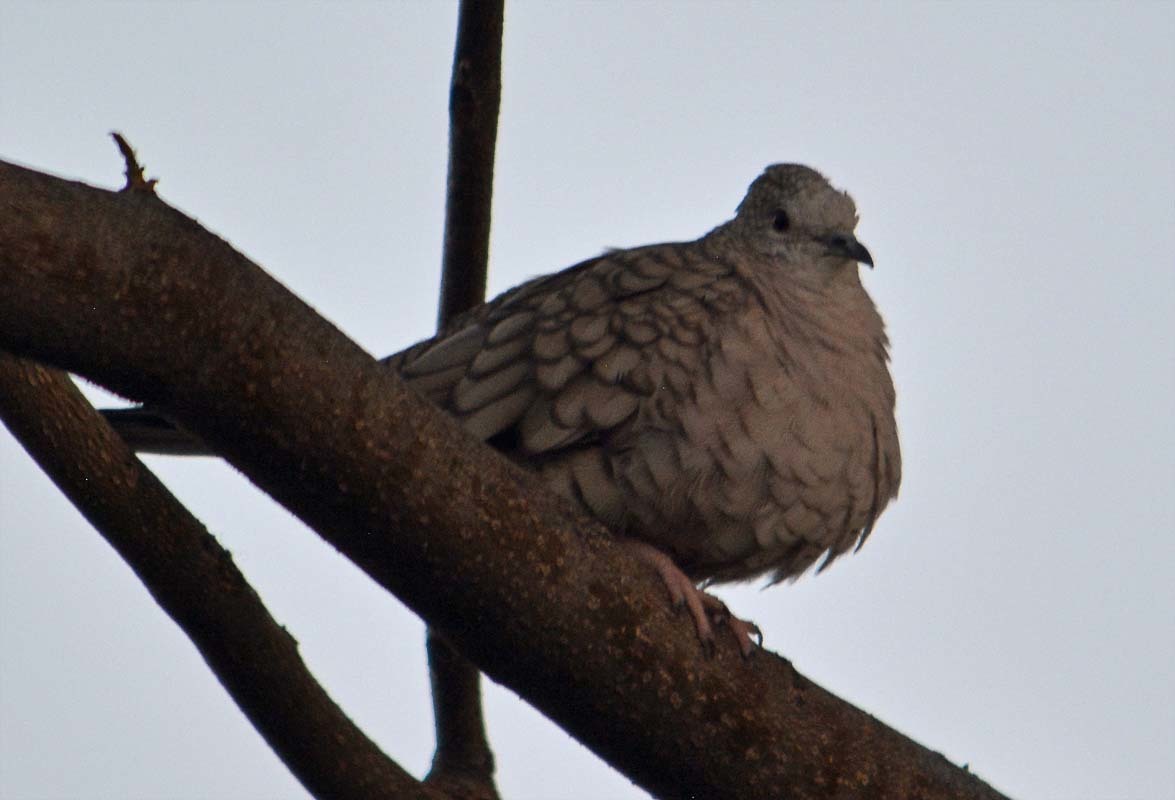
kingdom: Animalia
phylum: Chordata
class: Aves
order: Columbiformes
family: Columbidae
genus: Columbina
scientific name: Columbina inca
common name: Inca dove
